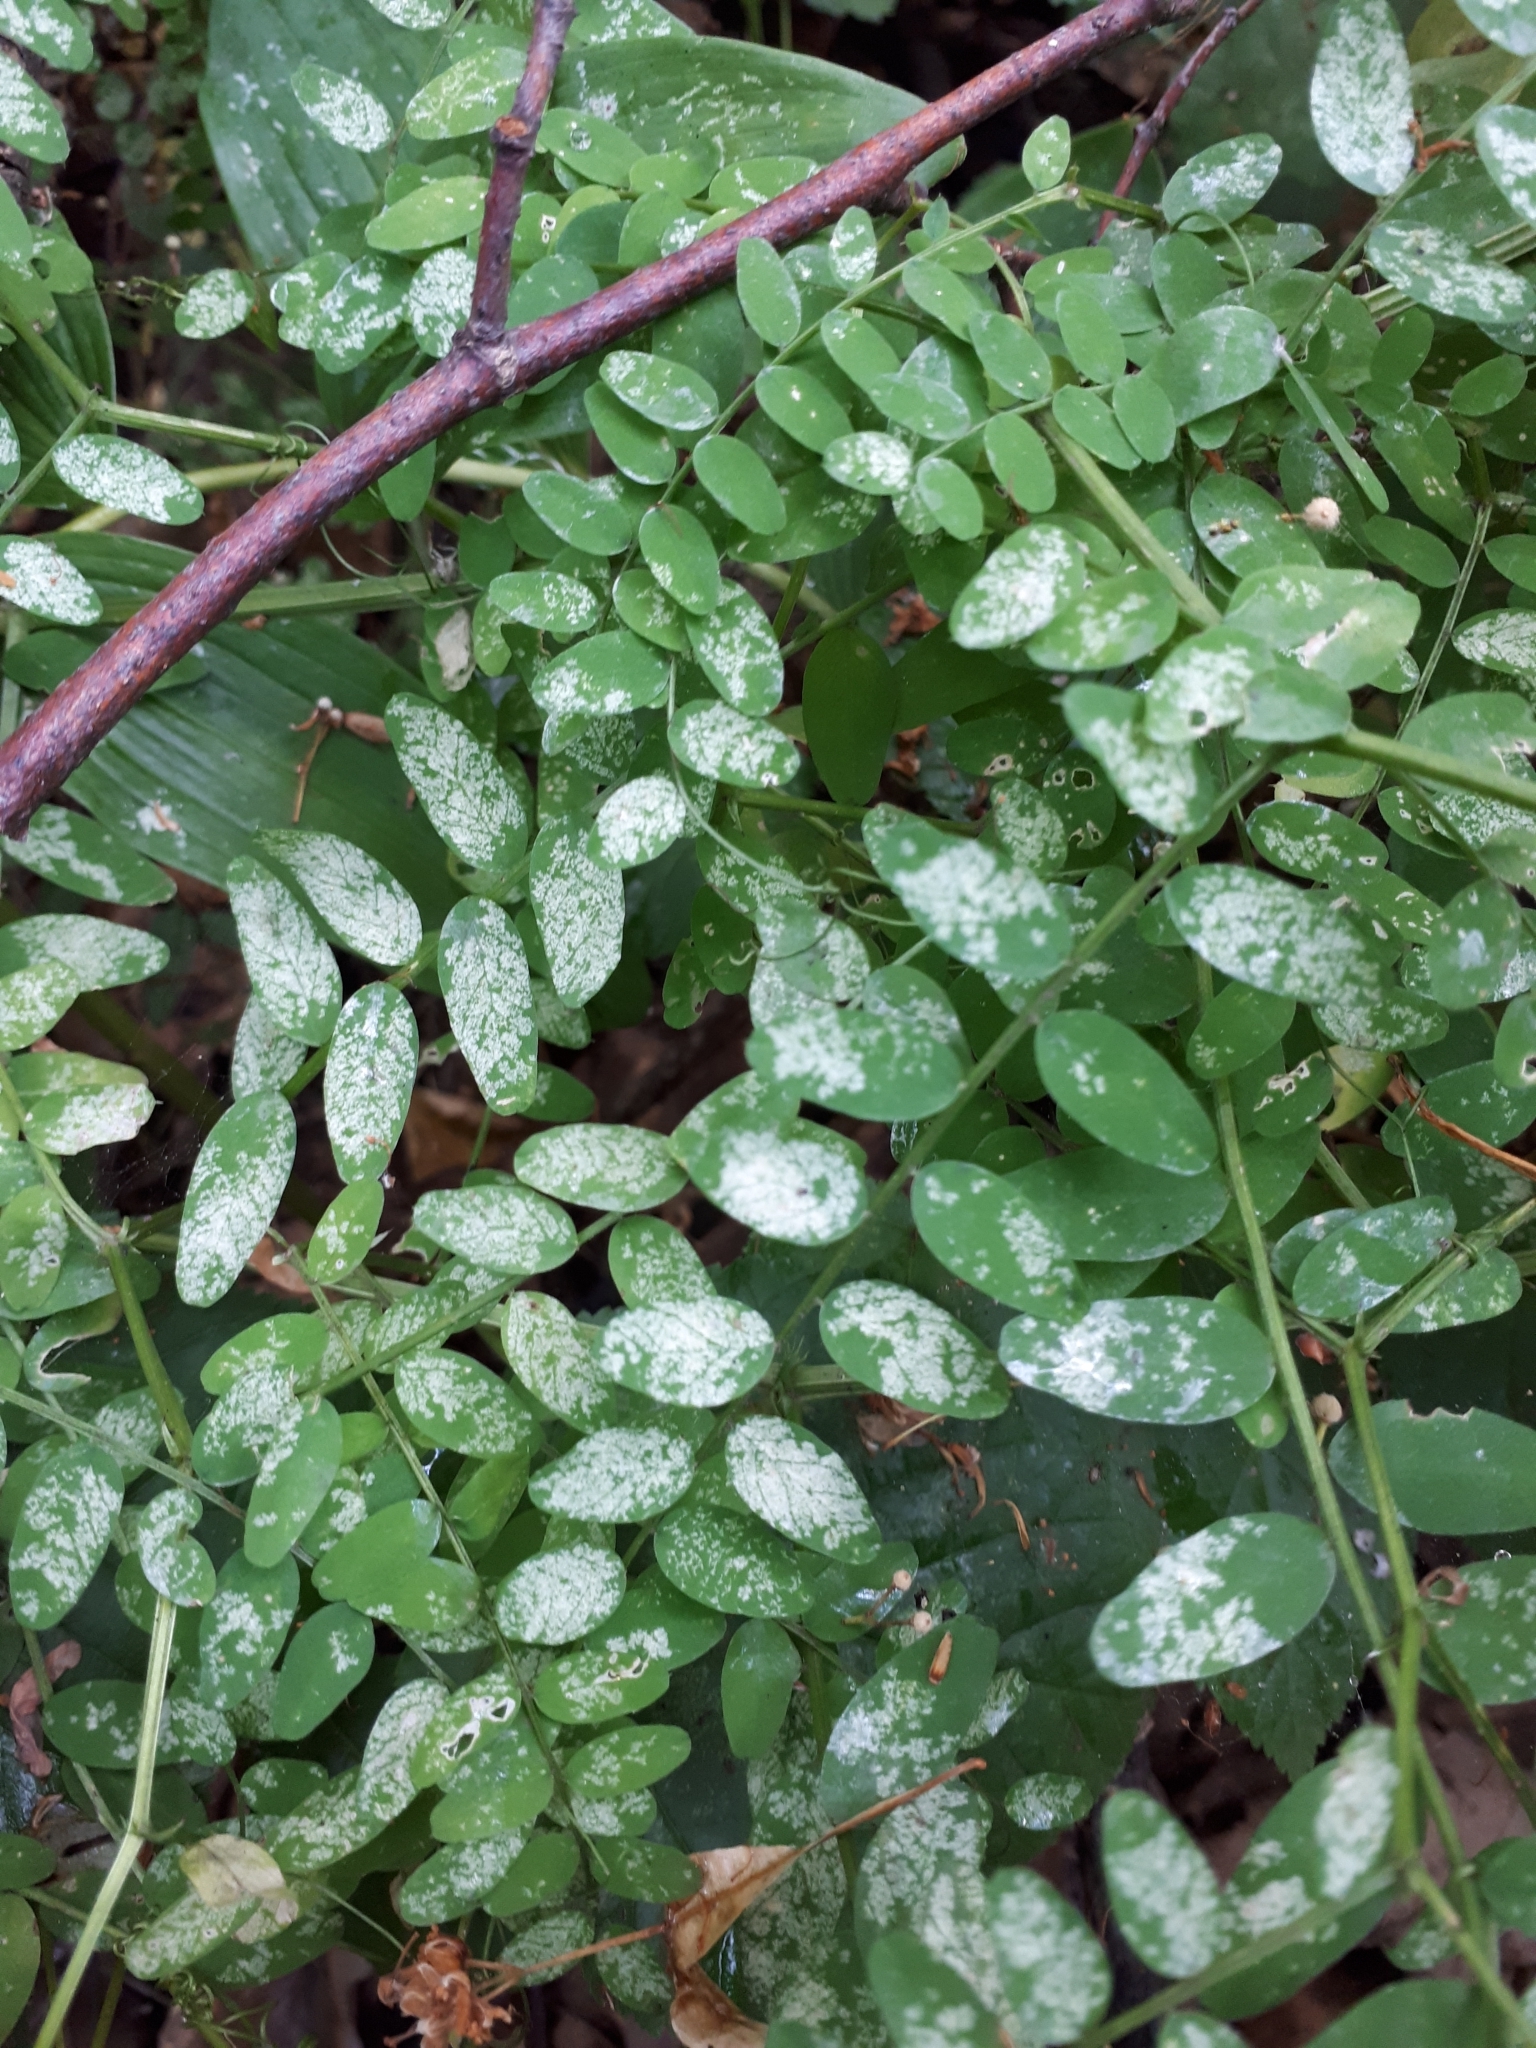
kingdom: Plantae
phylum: Tracheophyta
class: Magnoliopsida
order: Fabales
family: Fabaceae
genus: Vicia
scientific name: Vicia sylvatica
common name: Wood vetch
